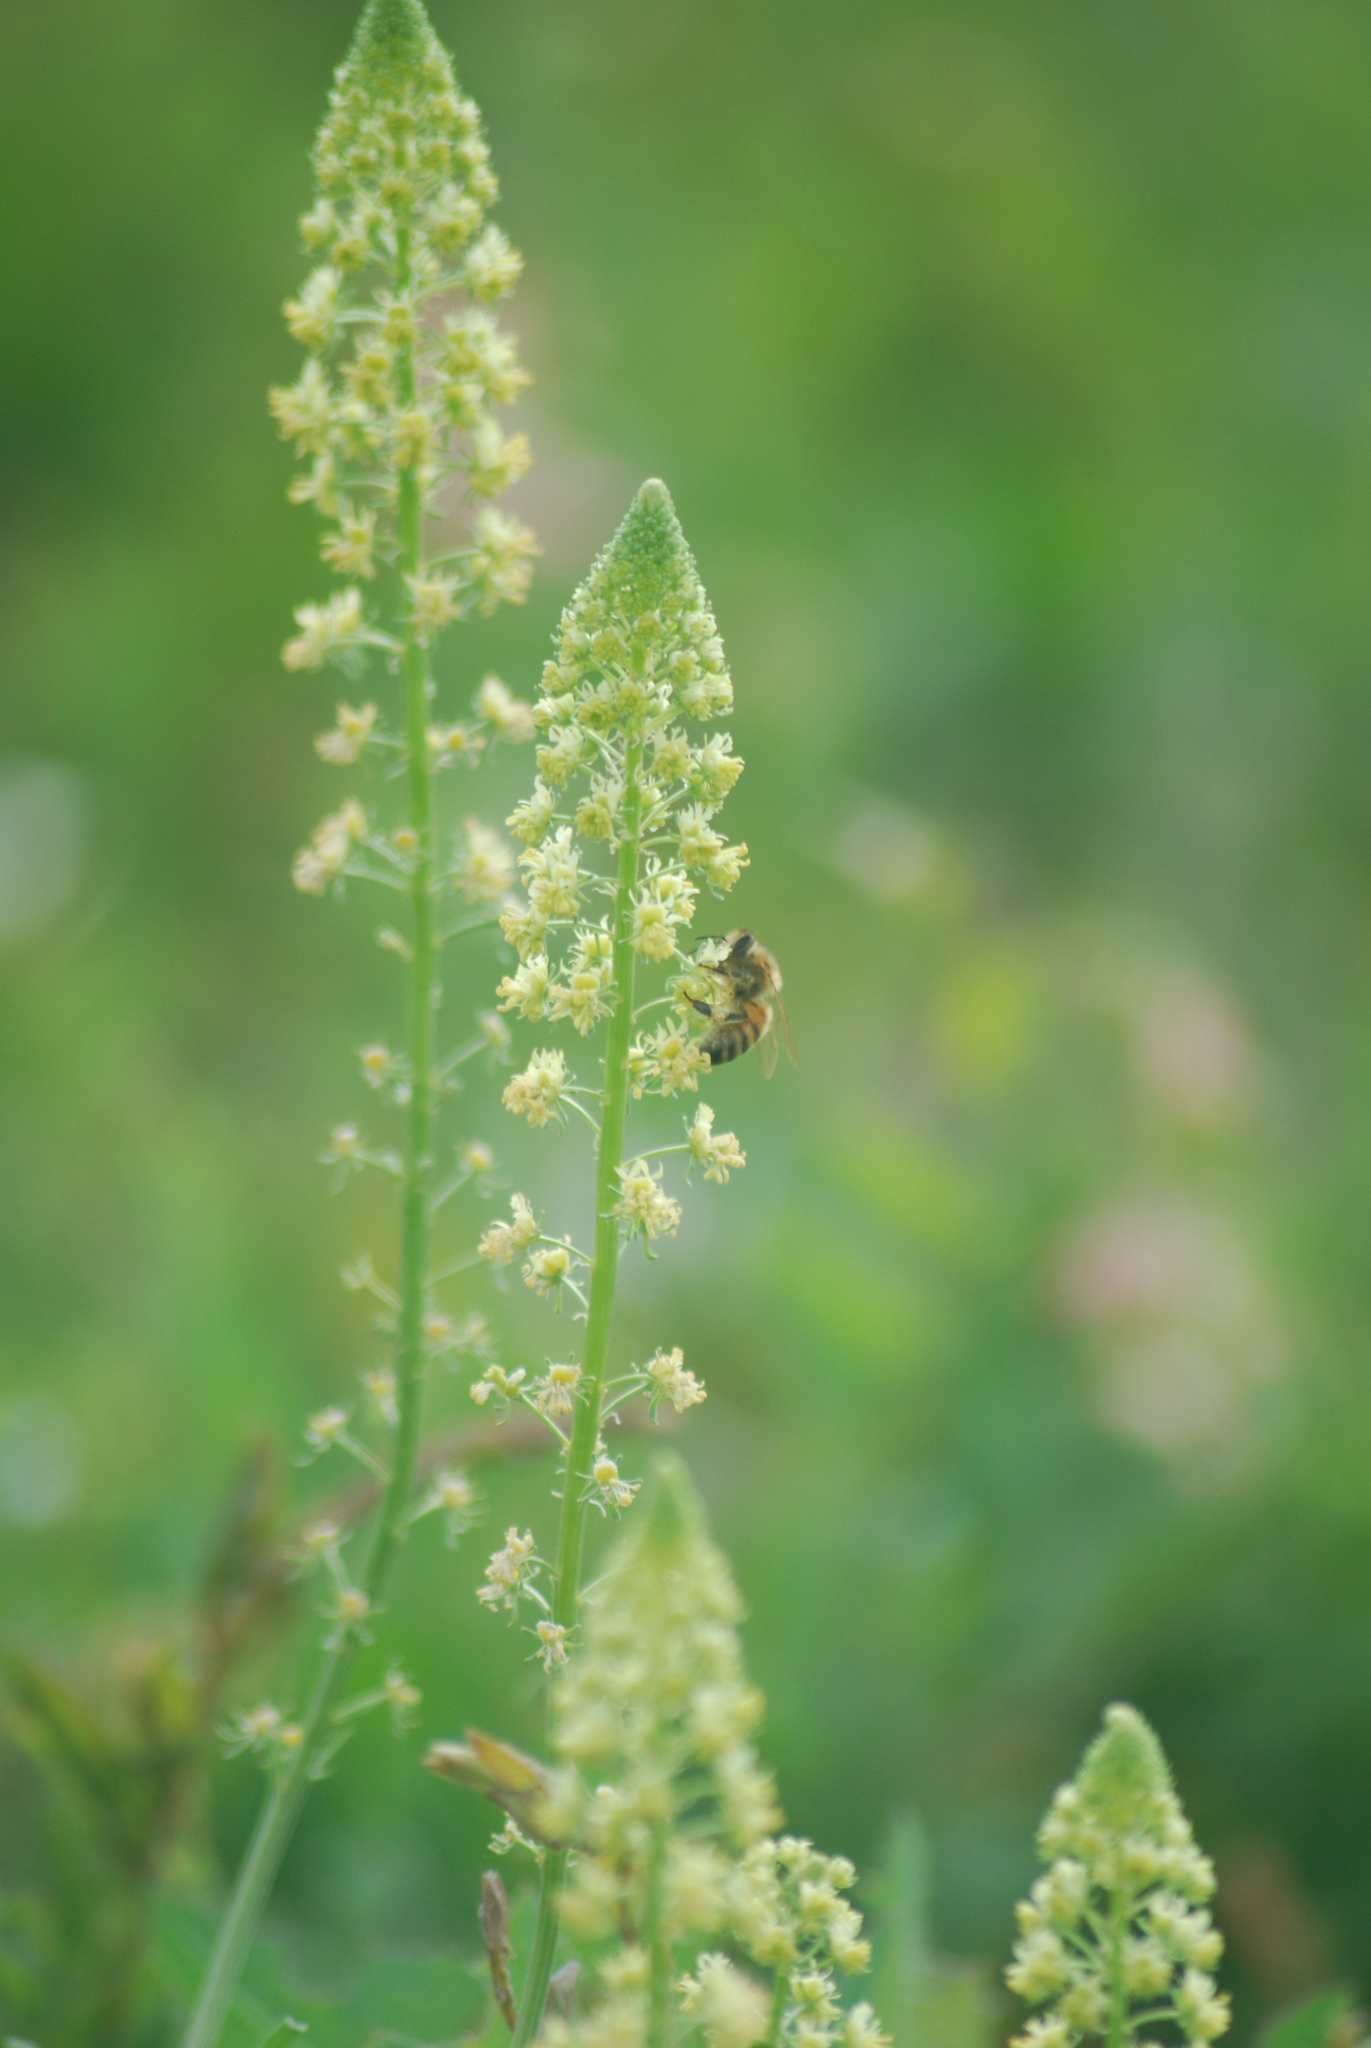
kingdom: Animalia
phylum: Arthropoda
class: Insecta
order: Hymenoptera
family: Apidae
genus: Apis
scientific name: Apis mellifera
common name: Honey bee
